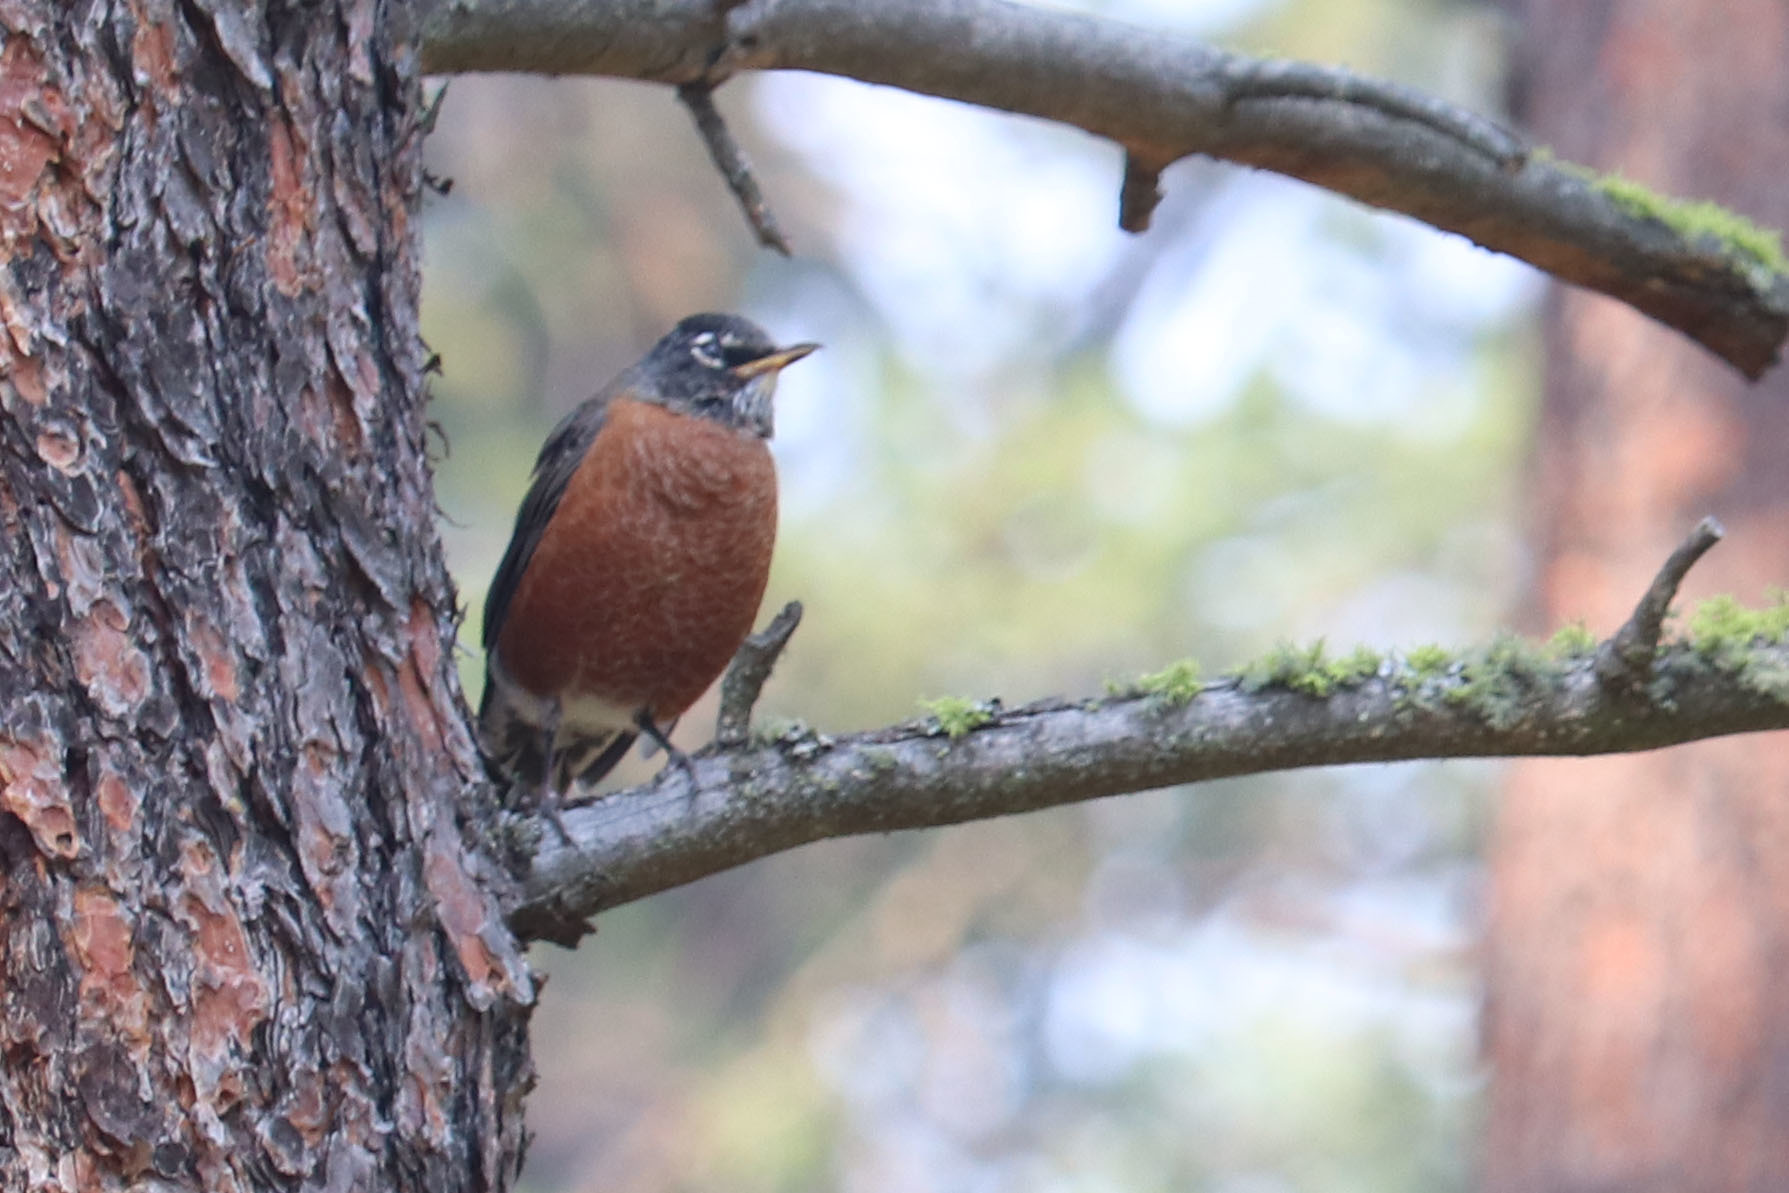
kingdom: Animalia
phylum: Chordata
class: Aves
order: Passeriformes
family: Turdidae
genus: Turdus
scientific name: Turdus migratorius
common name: American robin
